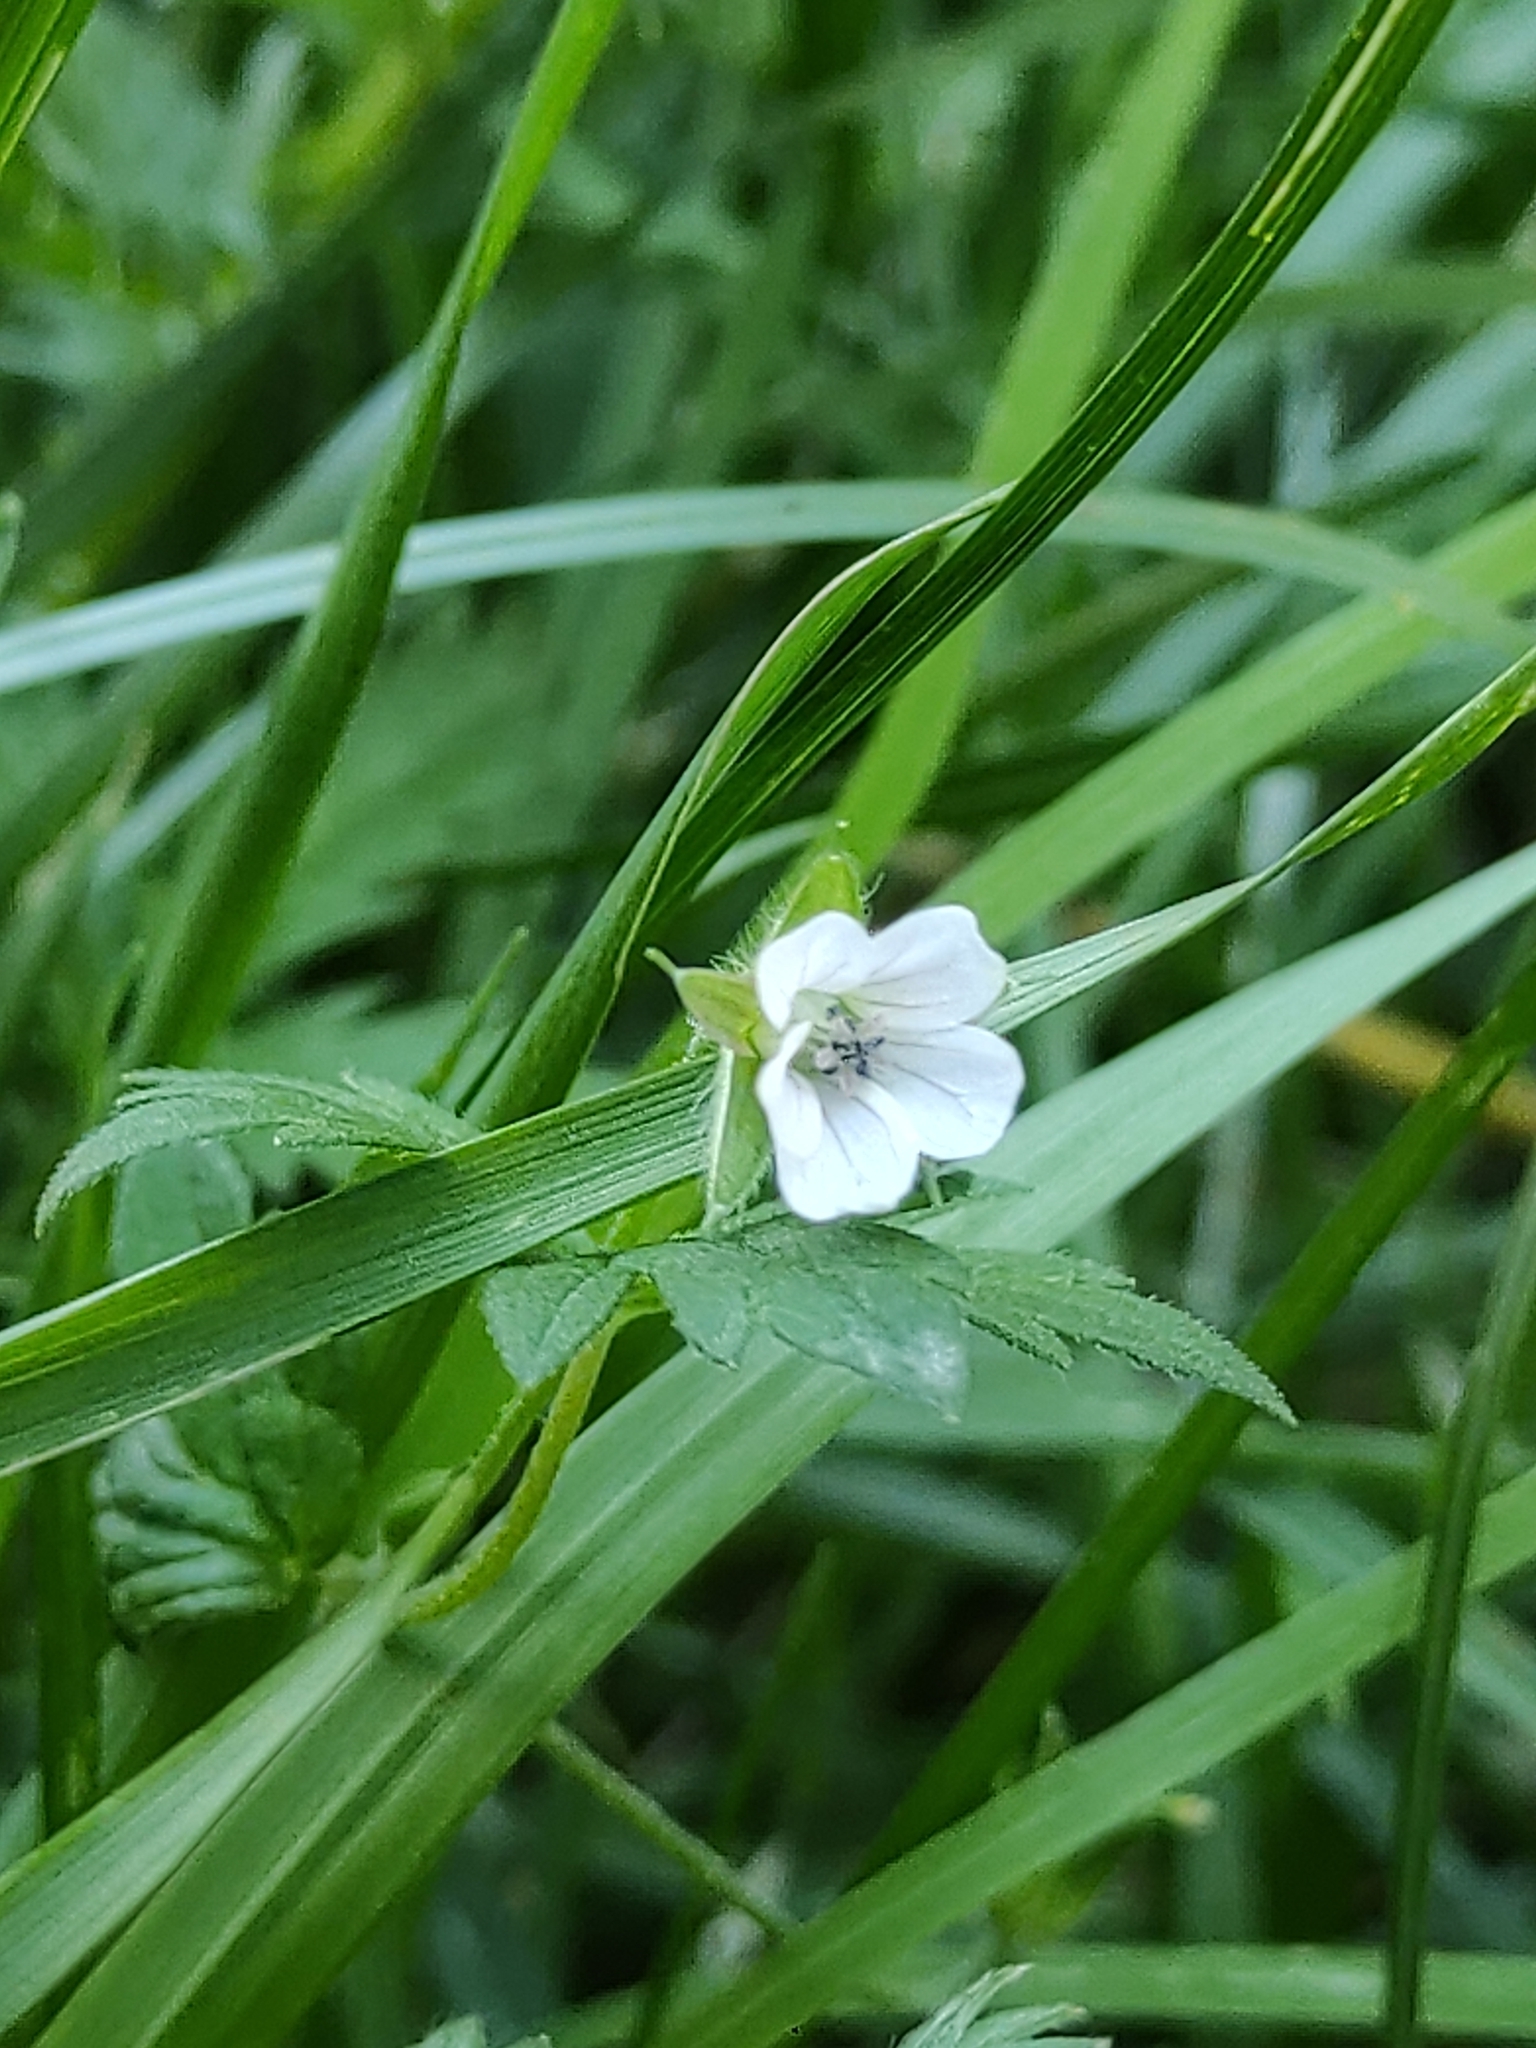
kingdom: Plantae
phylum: Tracheophyta
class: Magnoliopsida
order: Geraniales
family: Geraniaceae
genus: Geranium
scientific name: Geranium sibiricum
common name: Siberian crane's-bill
